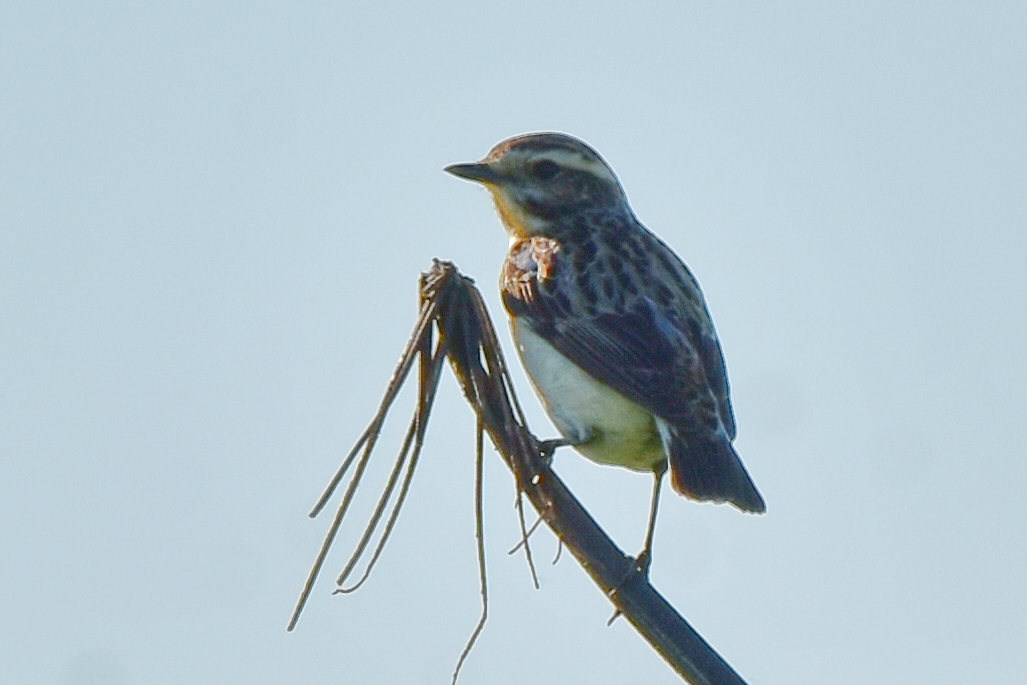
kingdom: Animalia
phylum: Chordata
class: Aves
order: Passeriformes
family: Muscicapidae
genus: Saxicola
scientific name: Saxicola rubetra
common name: Whinchat
